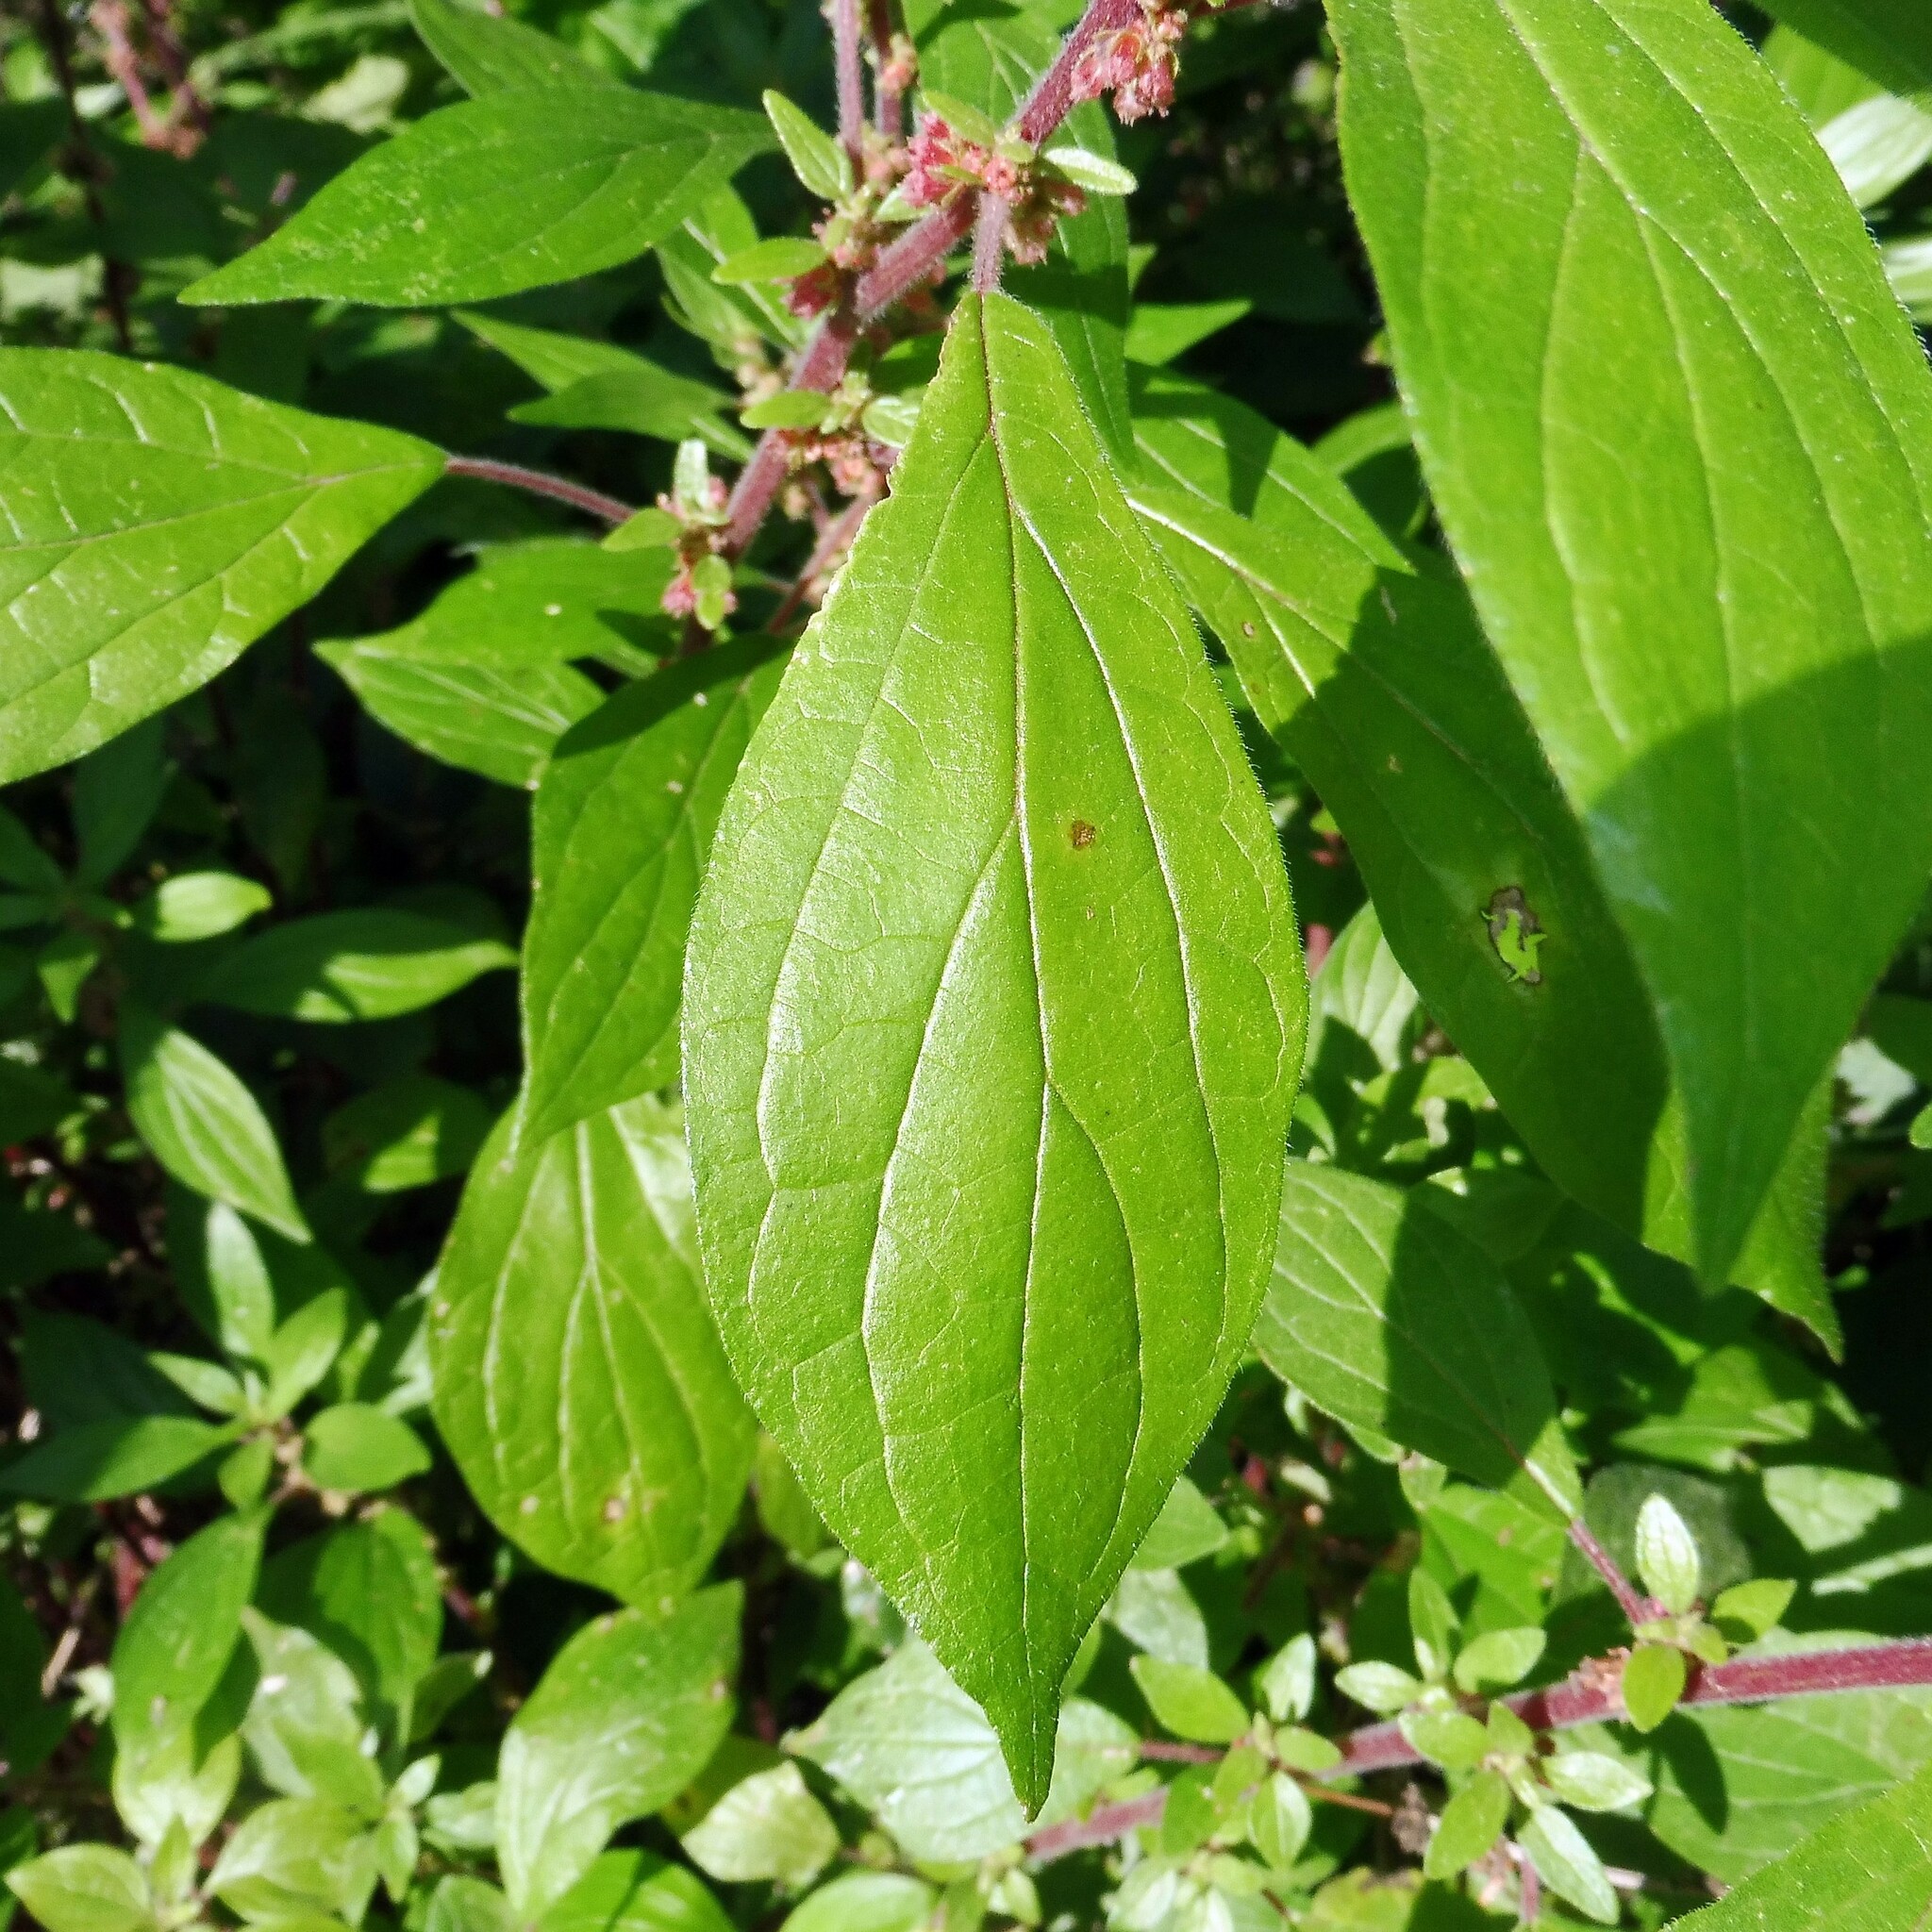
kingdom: Plantae
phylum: Tracheophyta
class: Magnoliopsida
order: Rosales
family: Urticaceae
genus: Parietaria
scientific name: Parietaria judaica
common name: Pellitory-of-the-wall
